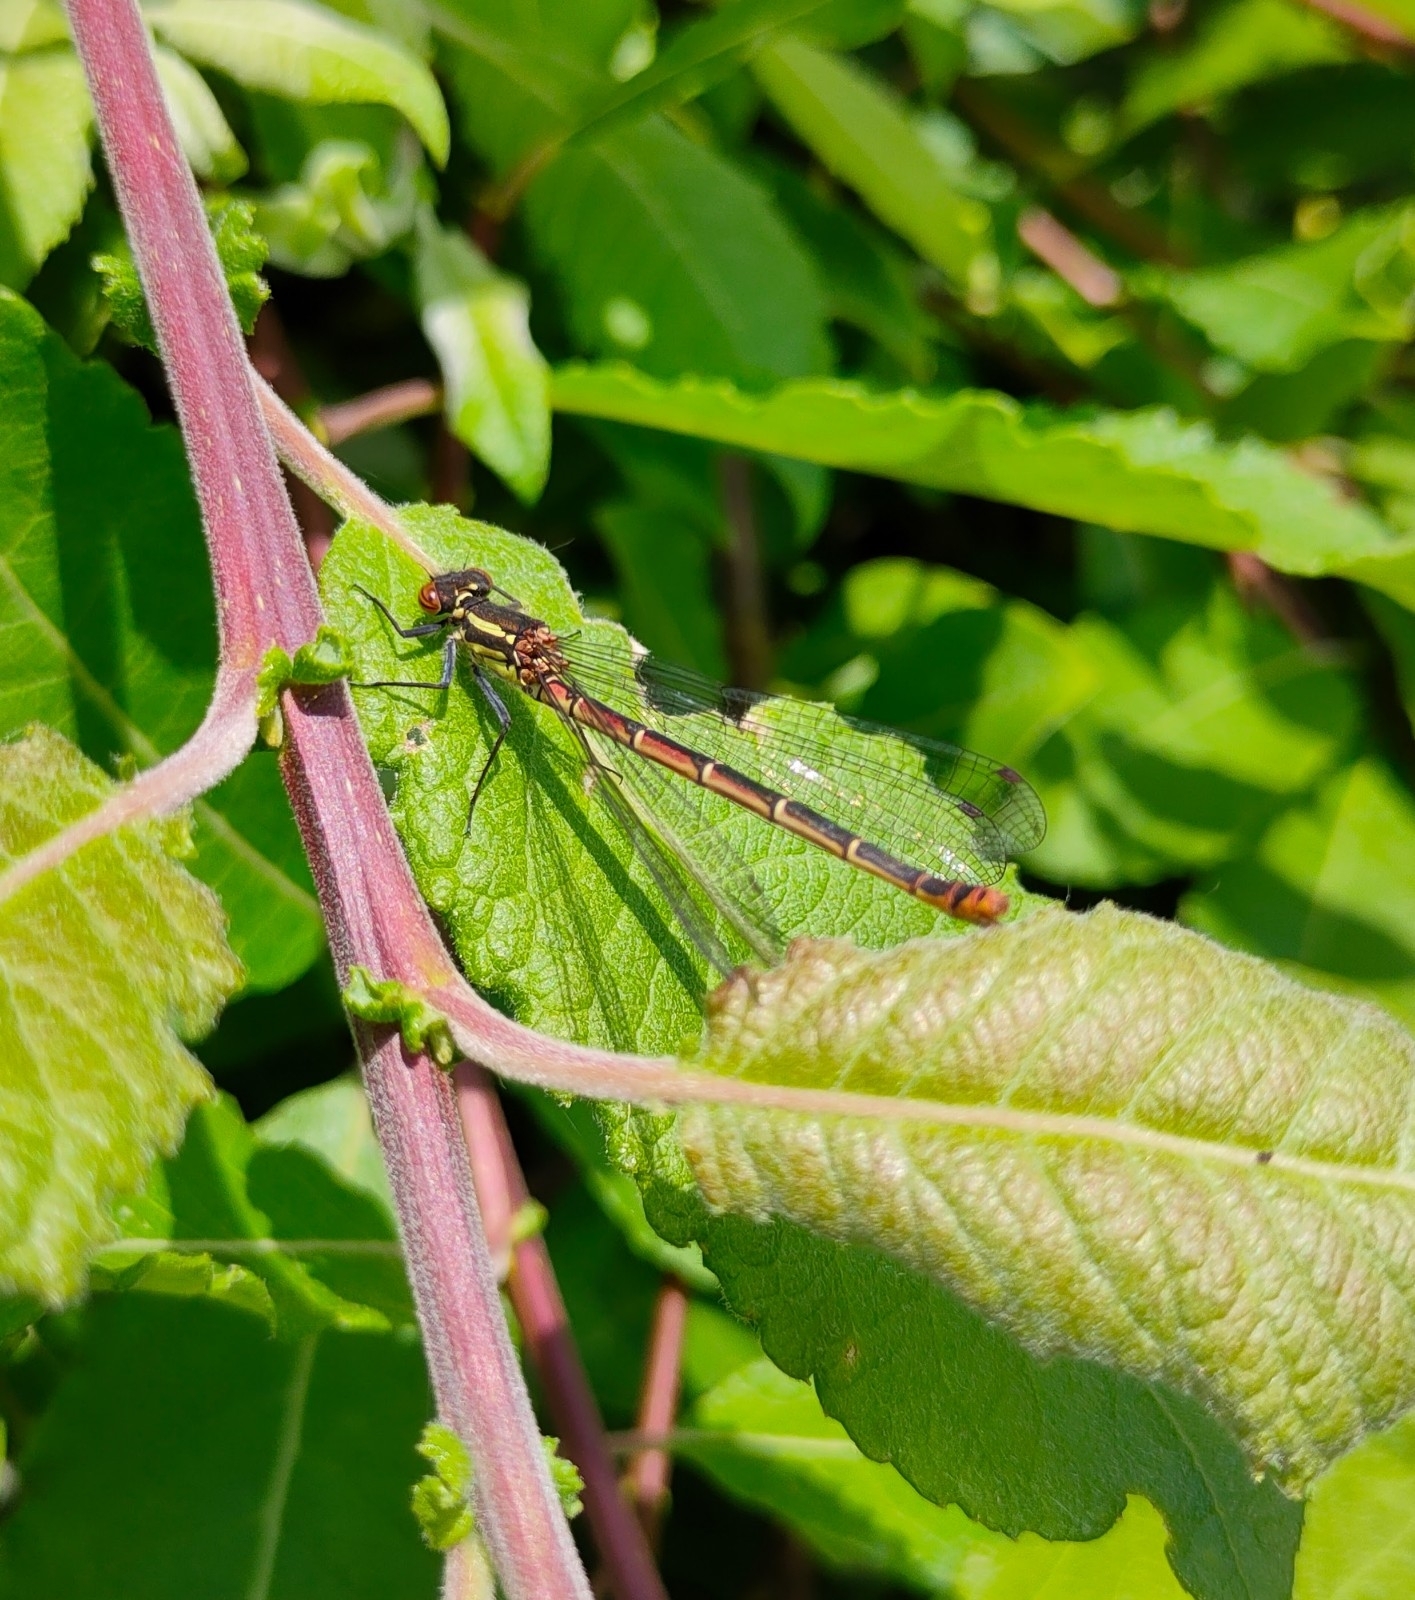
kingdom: Animalia
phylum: Arthropoda
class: Insecta
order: Odonata
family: Coenagrionidae
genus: Pyrrhosoma
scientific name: Pyrrhosoma nymphula
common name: Large red damsel
